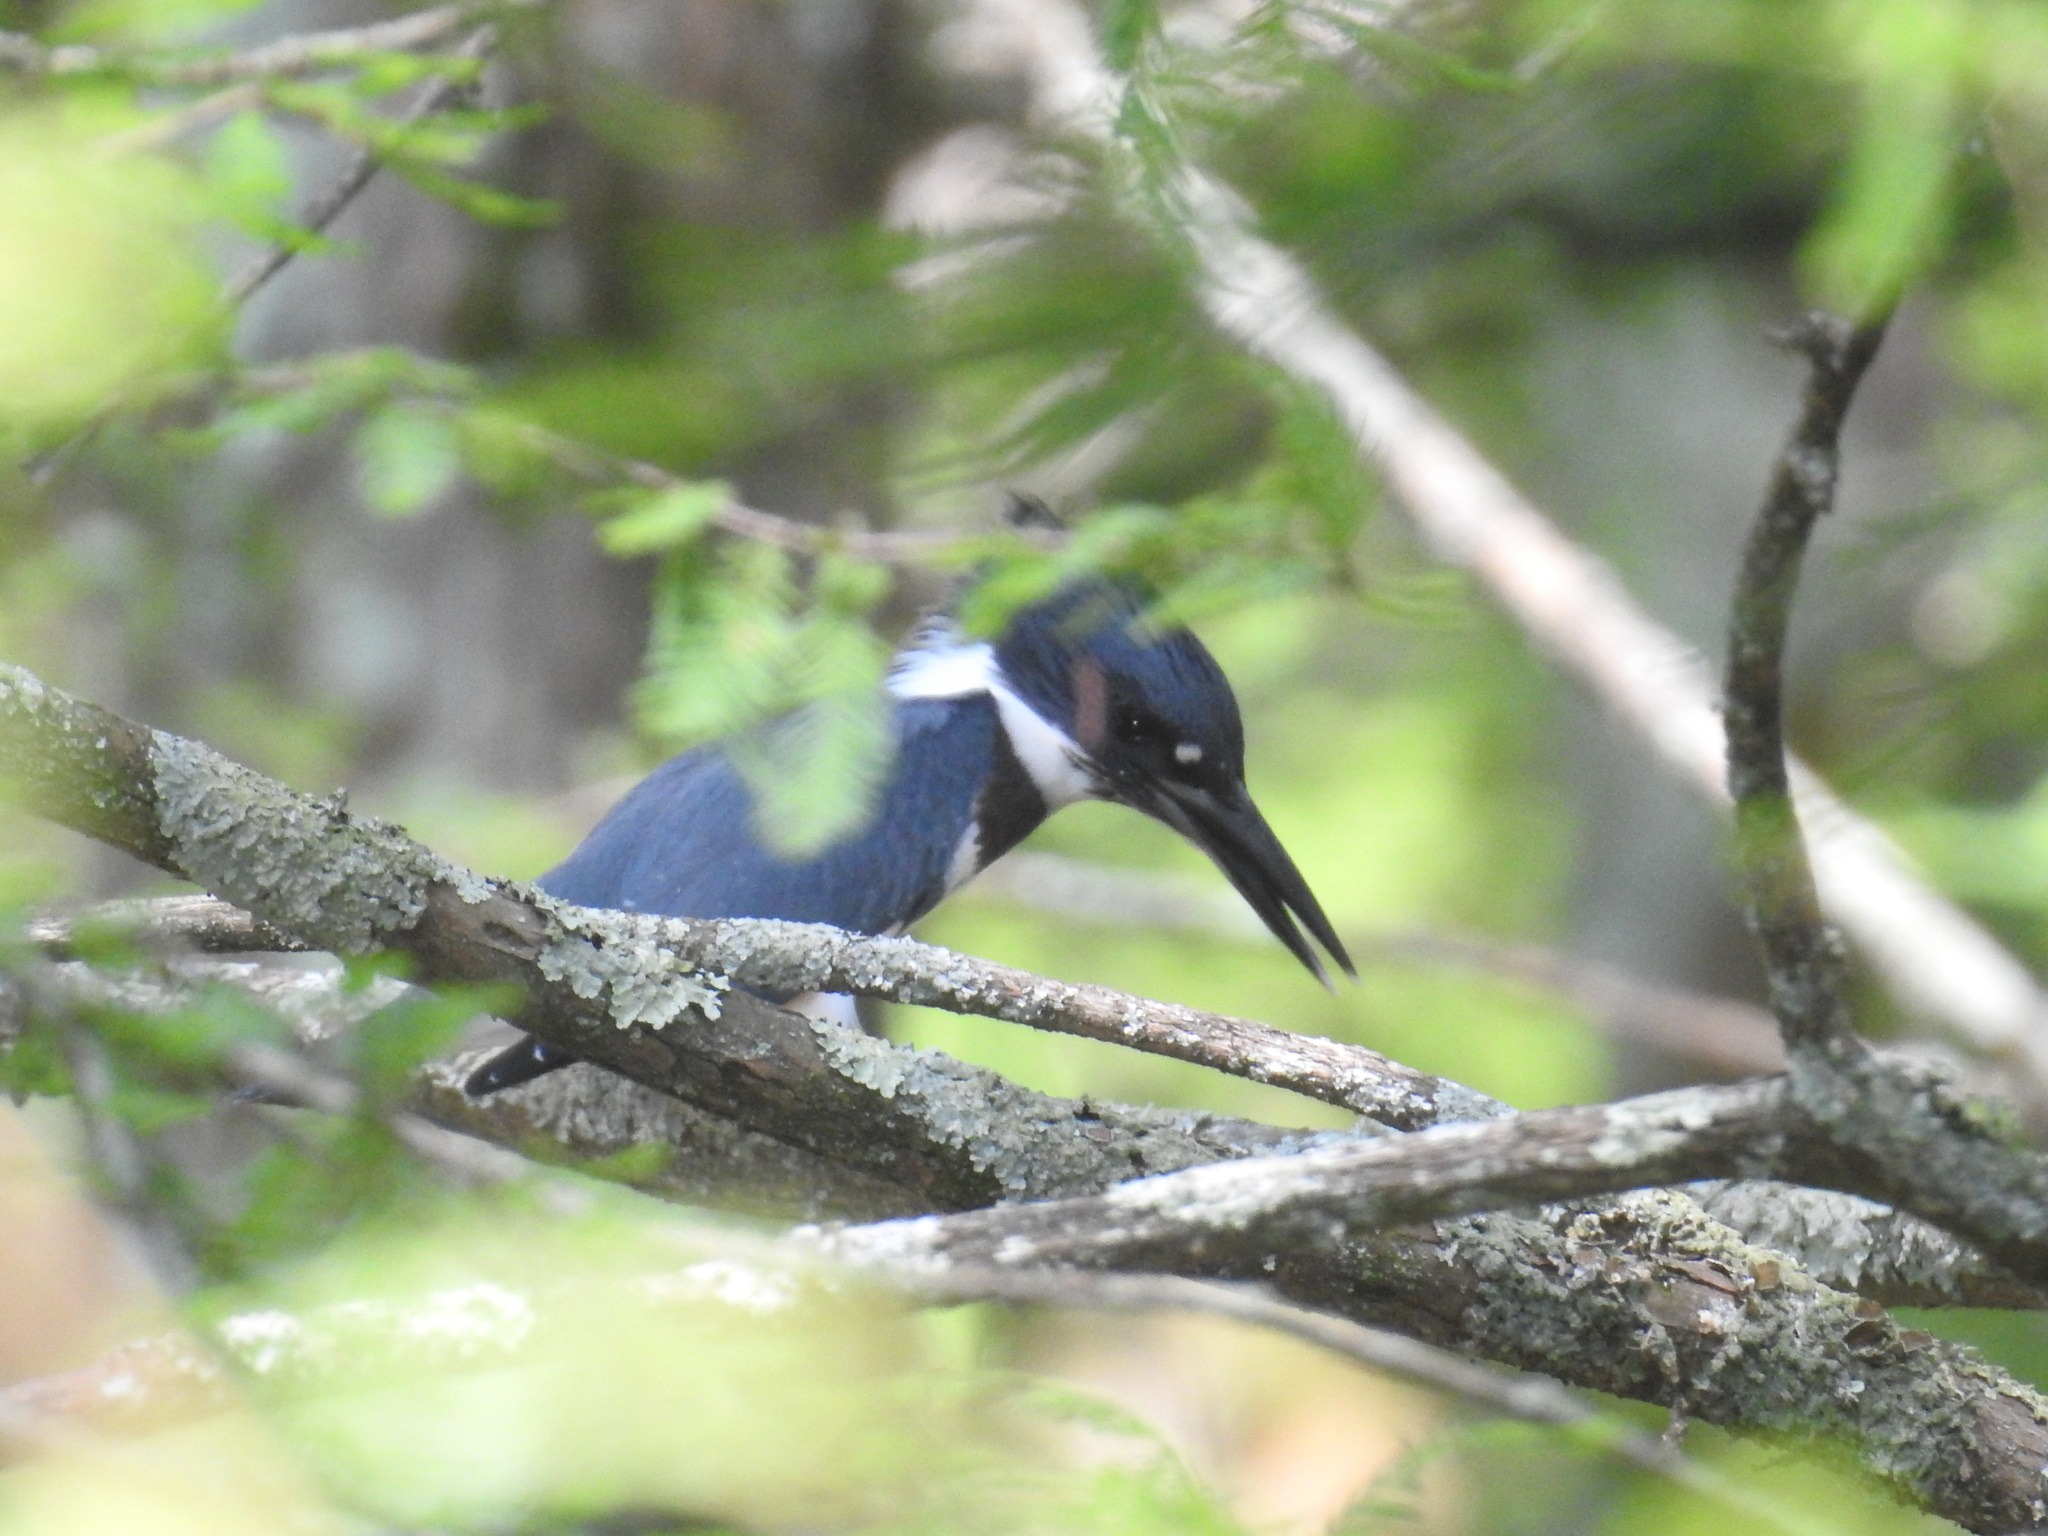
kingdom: Animalia
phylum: Chordata
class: Aves
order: Coraciiformes
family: Alcedinidae
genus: Megaceryle
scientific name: Megaceryle alcyon
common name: Belted kingfisher
